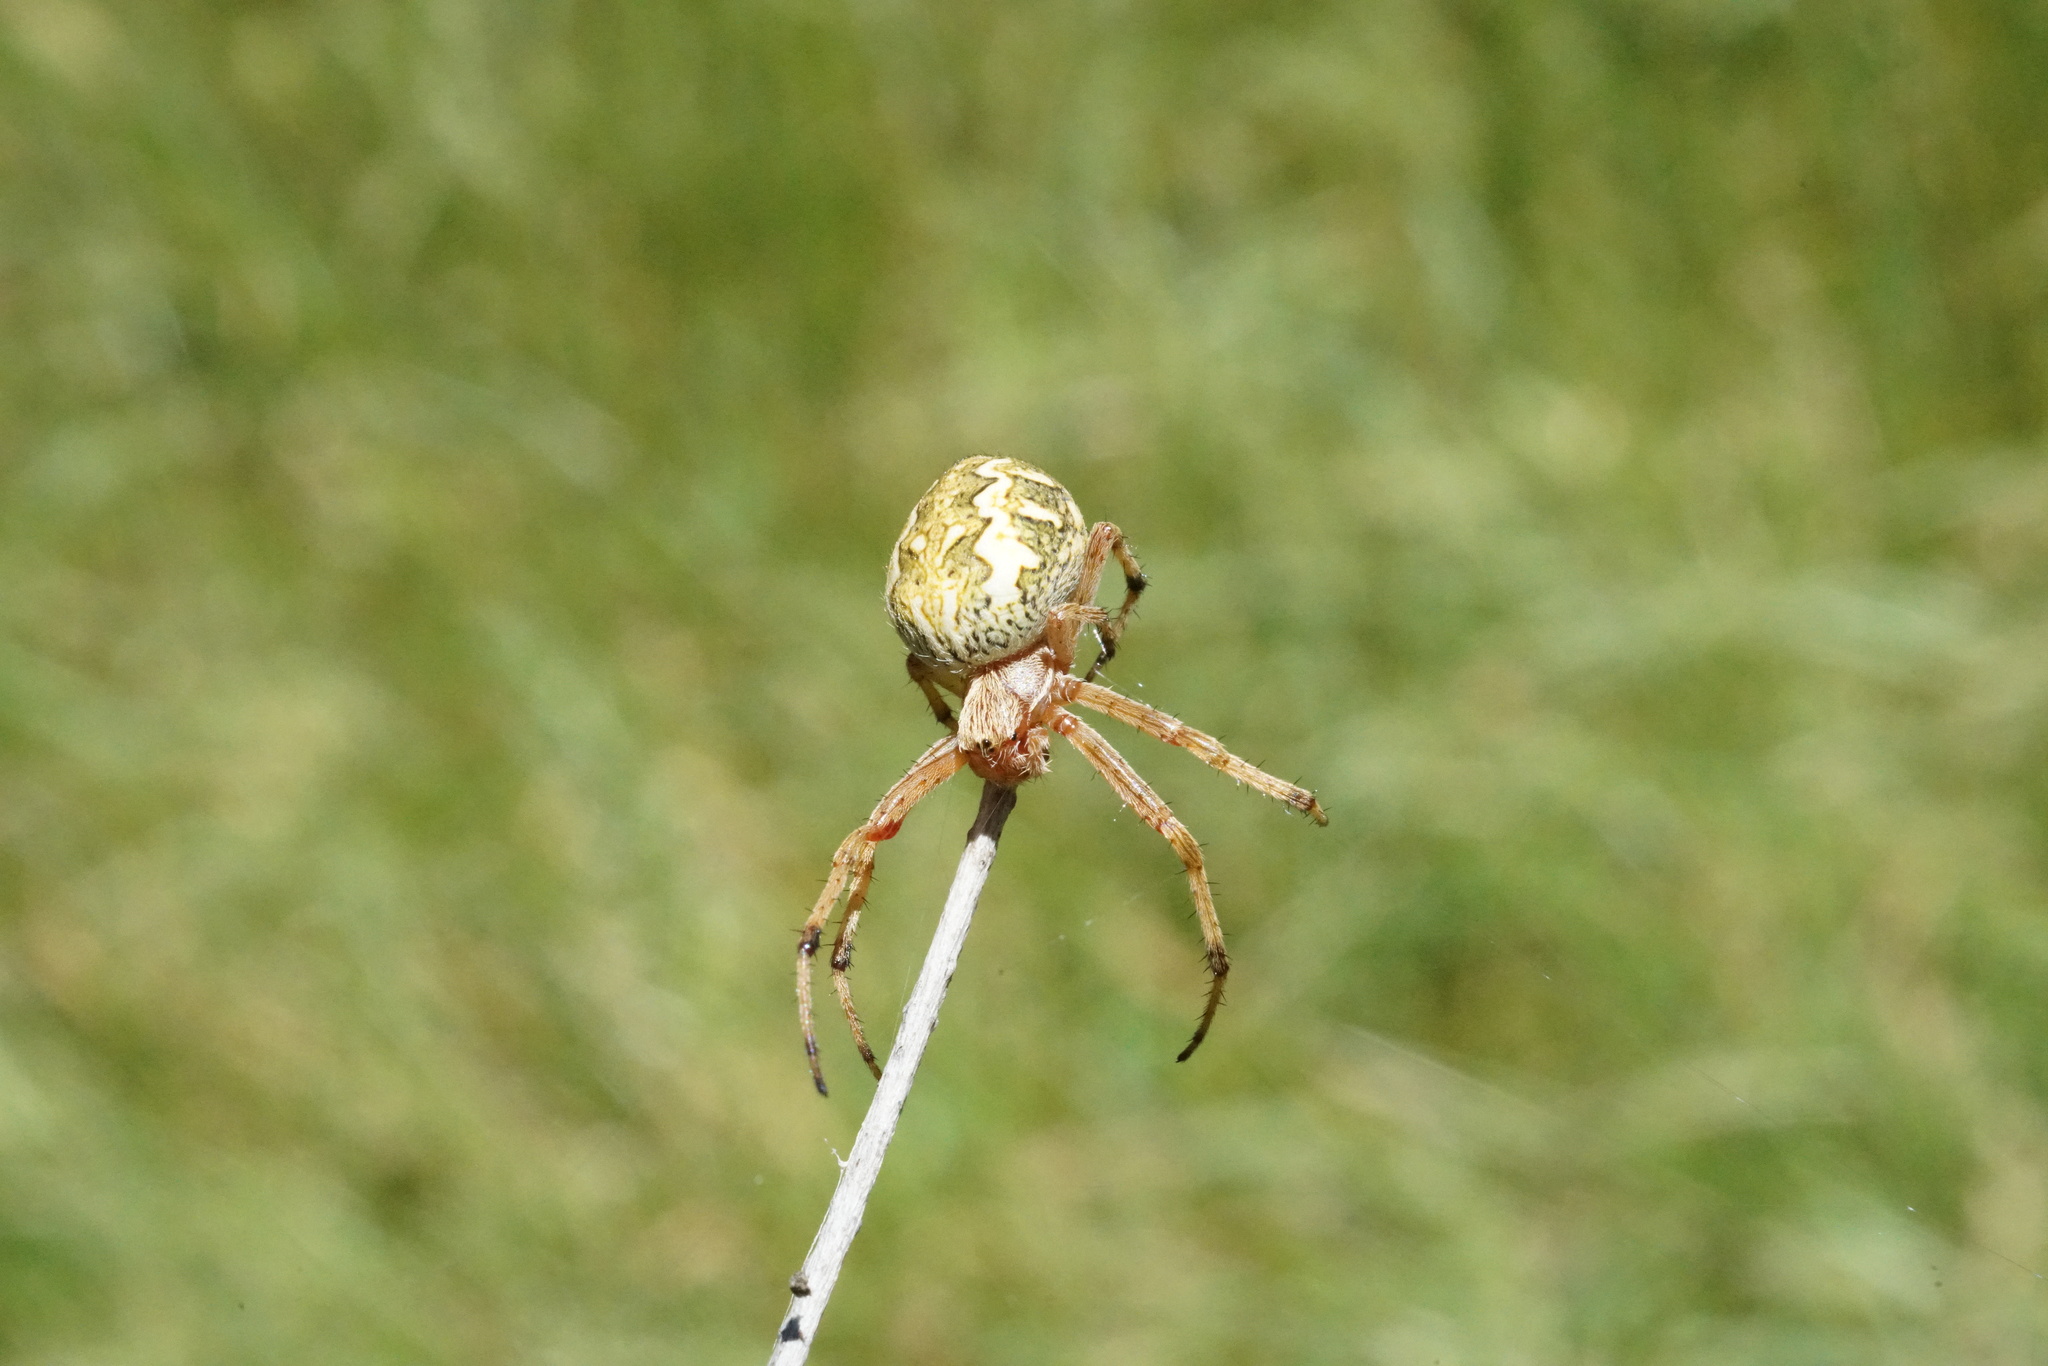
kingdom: Animalia
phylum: Arthropoda
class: Arachnida
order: Araneae
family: Araneidae
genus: Salsa
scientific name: Salsa fuliginata
